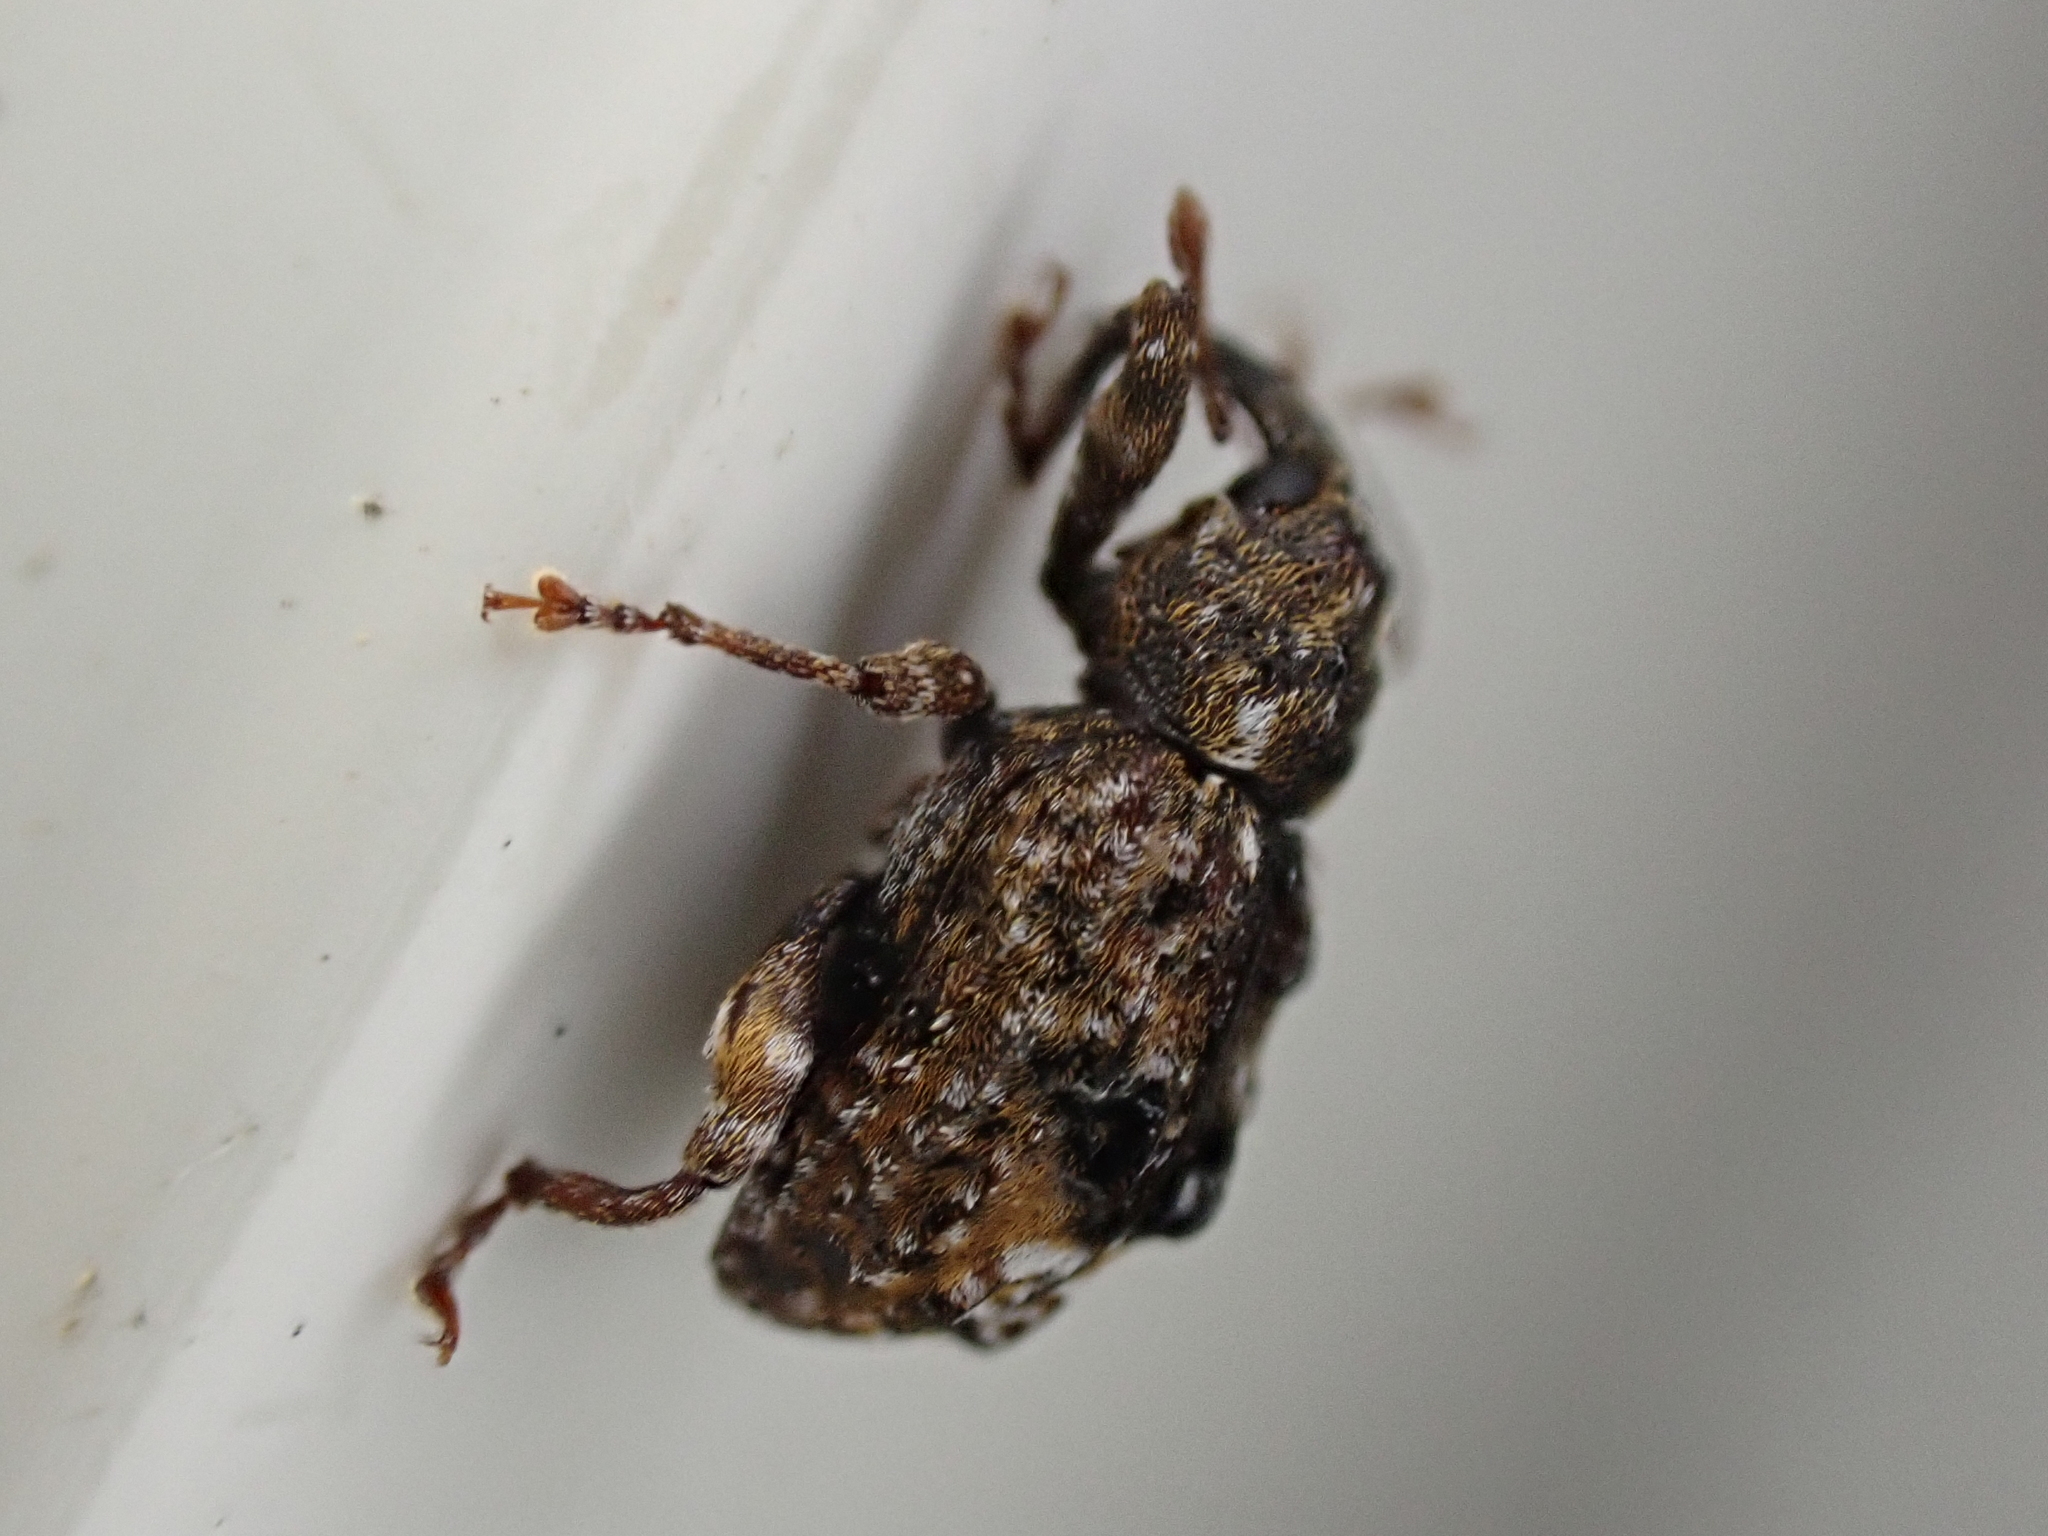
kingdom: Animalia
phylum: Arthropoda
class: Insecta
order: Coleoptera
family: Curculionidae
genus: Conotrachelus
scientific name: Conotrachelus nenuphar
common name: Plum curculio
